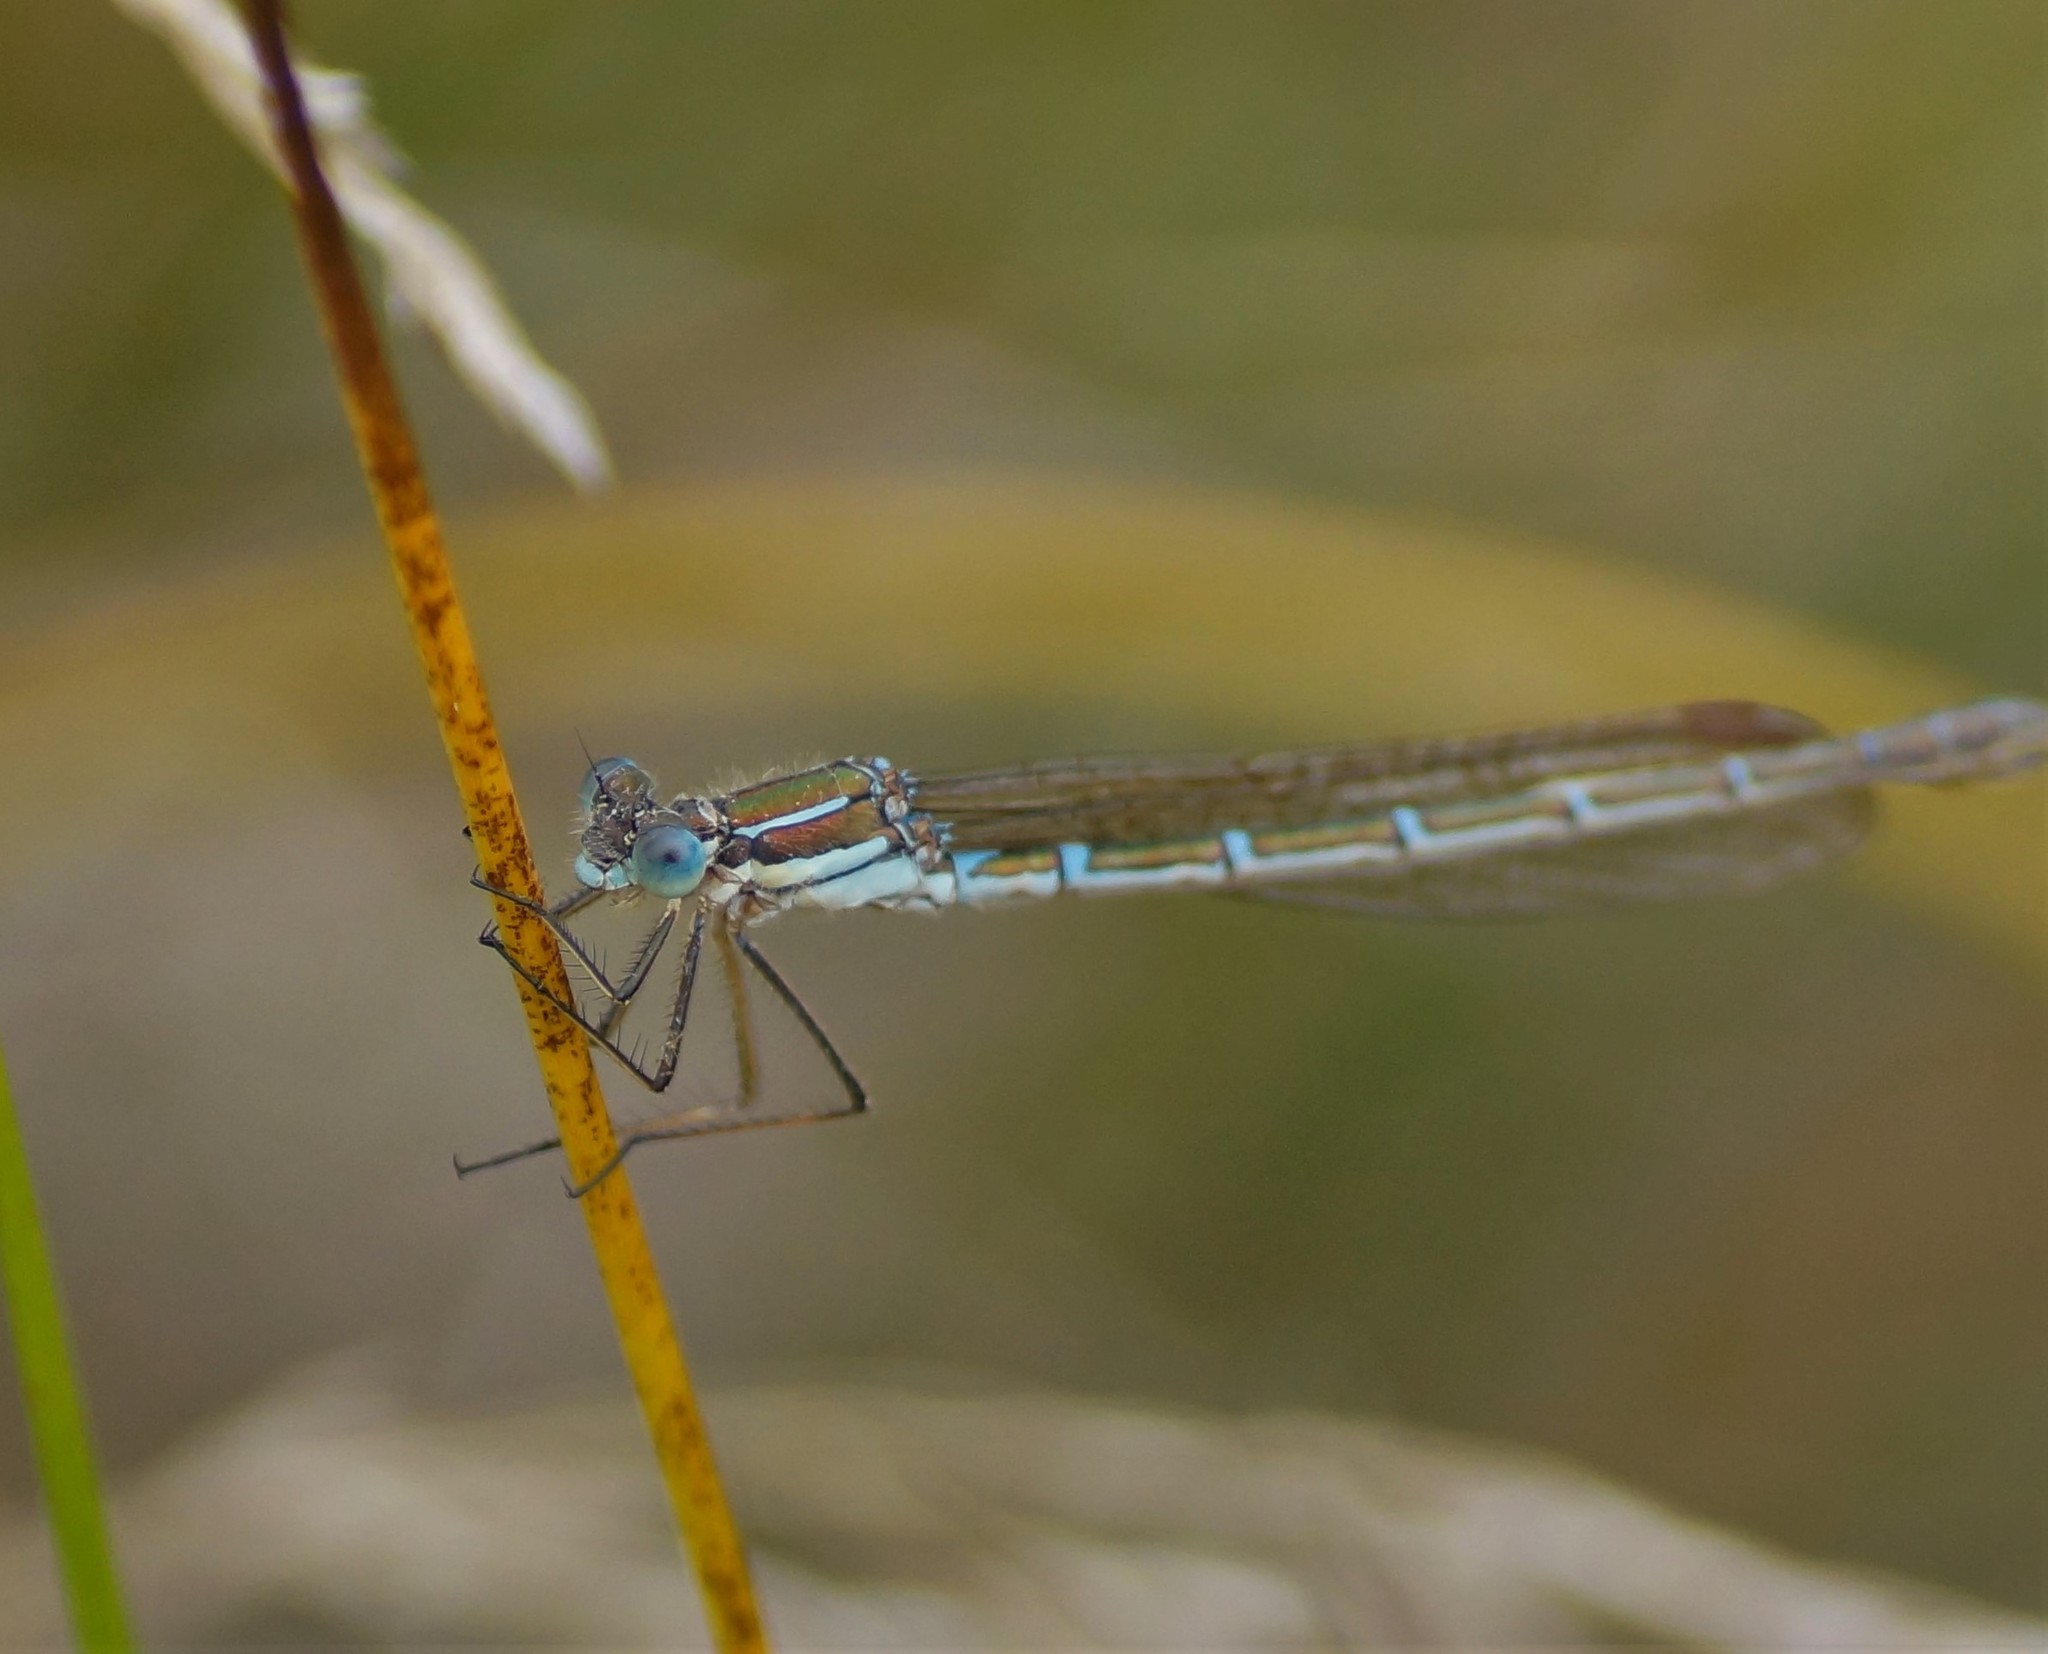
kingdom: Animalia
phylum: Arthropoda
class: Insecta
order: Odonata
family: Lestidae
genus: Austrolestes
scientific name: Austrolestes cingulatus
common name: Metallic ringtail
